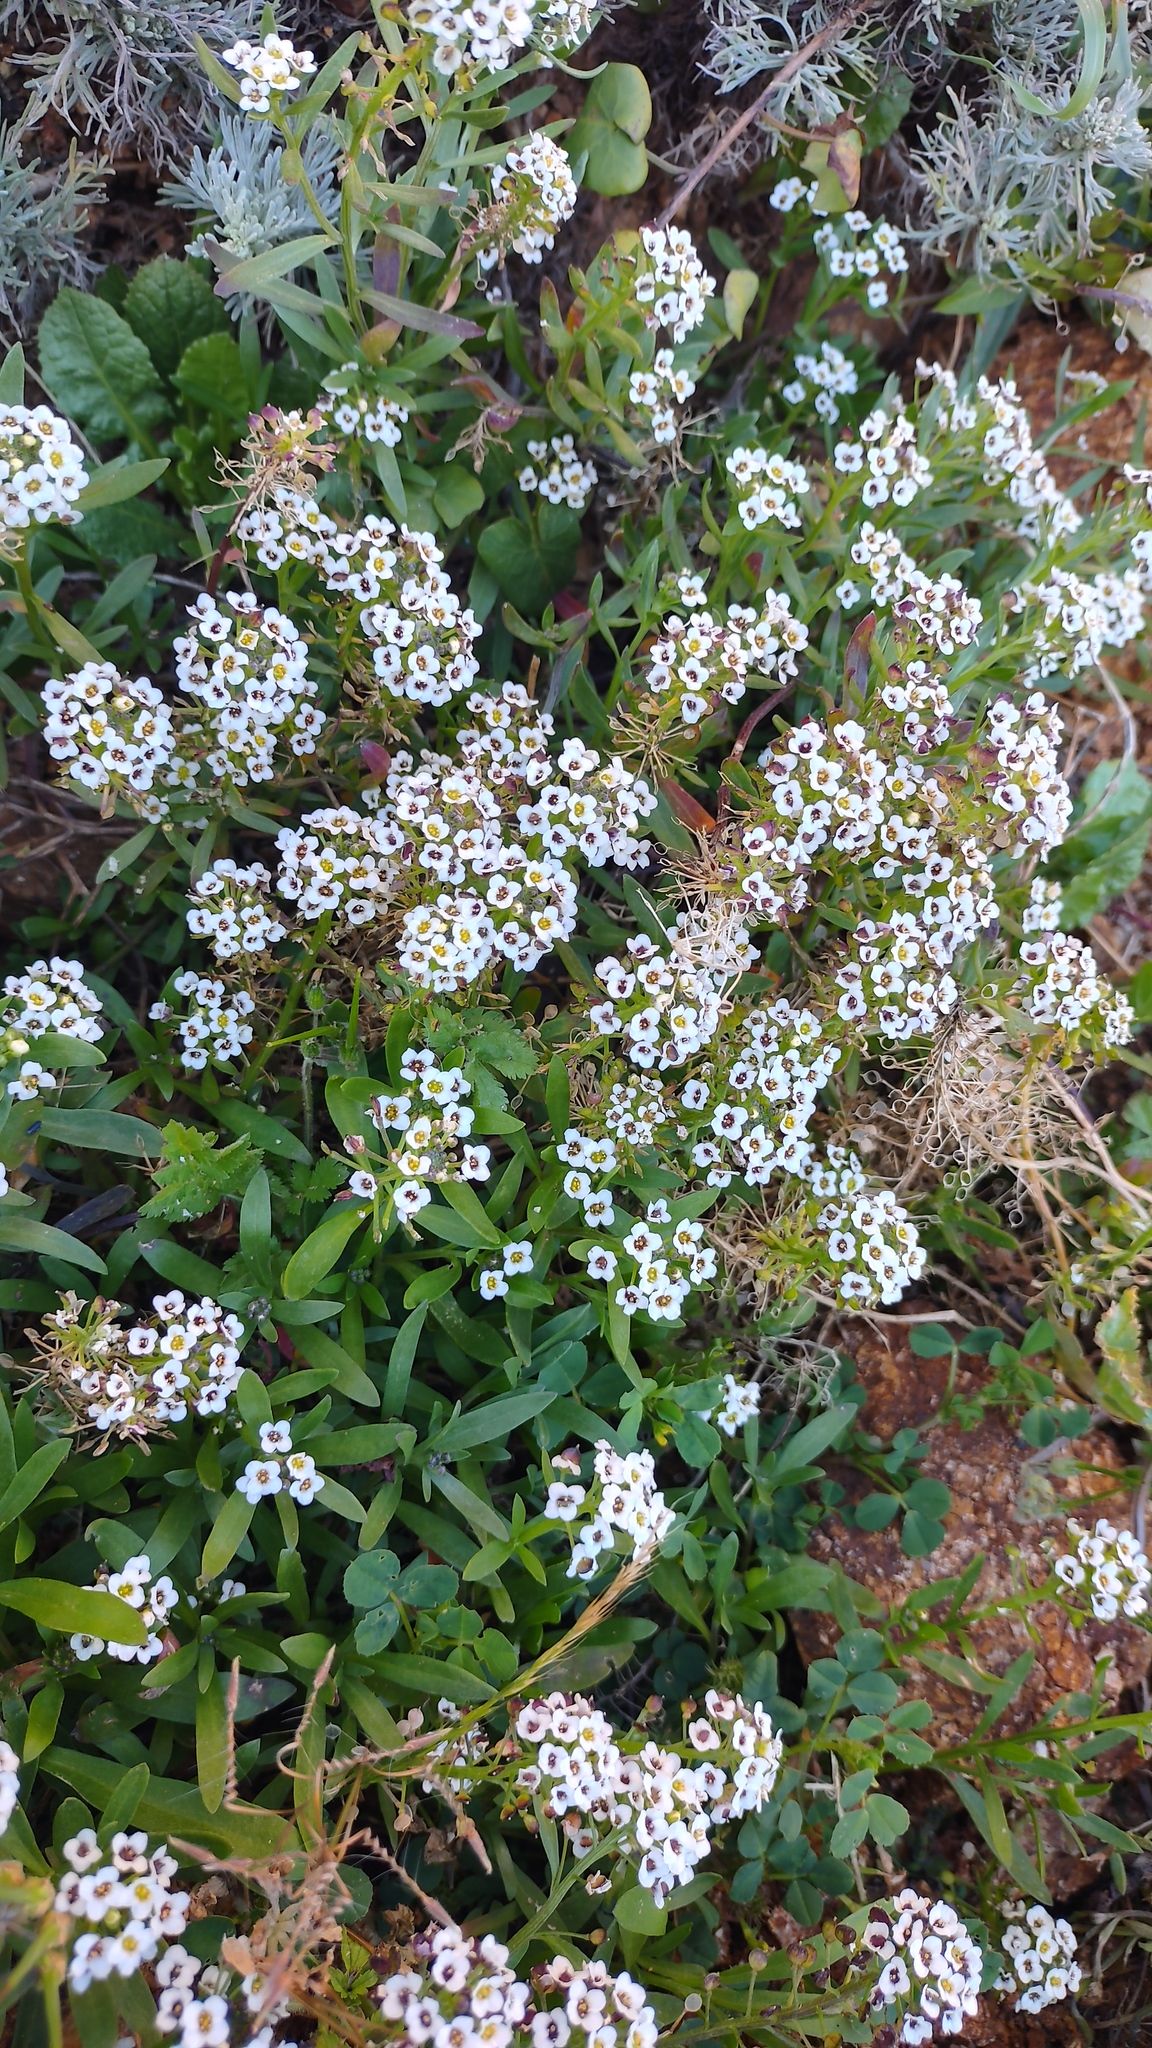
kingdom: Plantae
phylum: Tracheophyta
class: Magnoliopsida
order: Brassicales
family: Brassicaceae
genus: Lobularia
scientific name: Lobularia maritima
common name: Sweet alison
